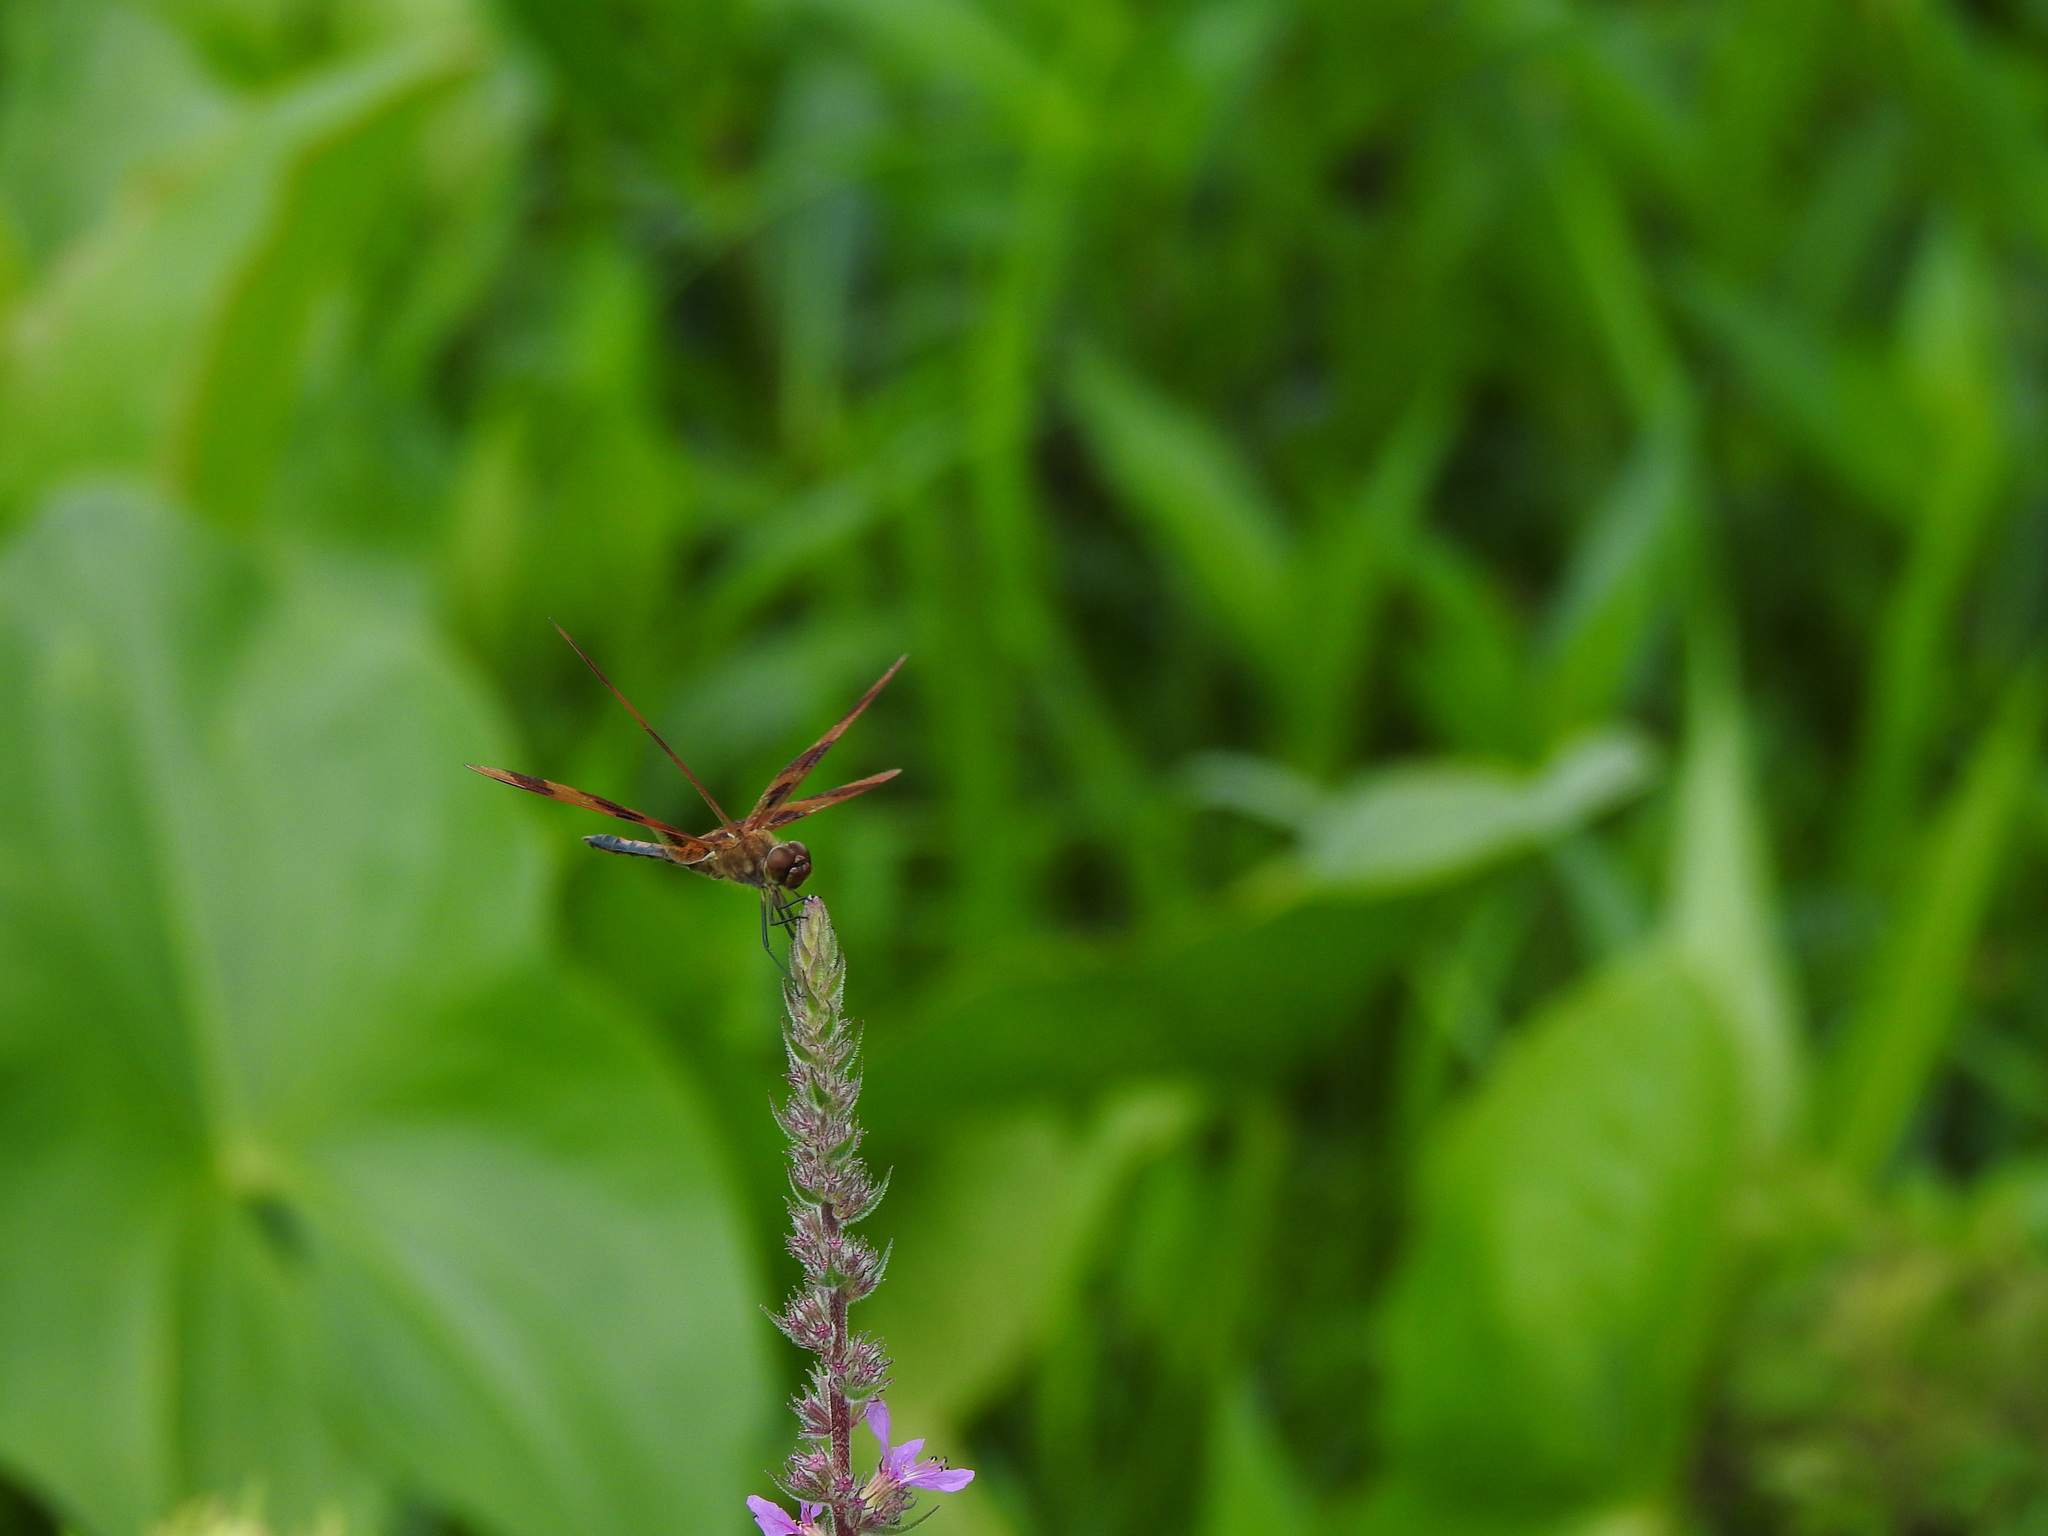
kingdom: Animalia
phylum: Arthropoda
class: Insecta
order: Odonata
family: Libellulidae
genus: Celithemis
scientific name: Celithemis eponina
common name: Halloween pennant
